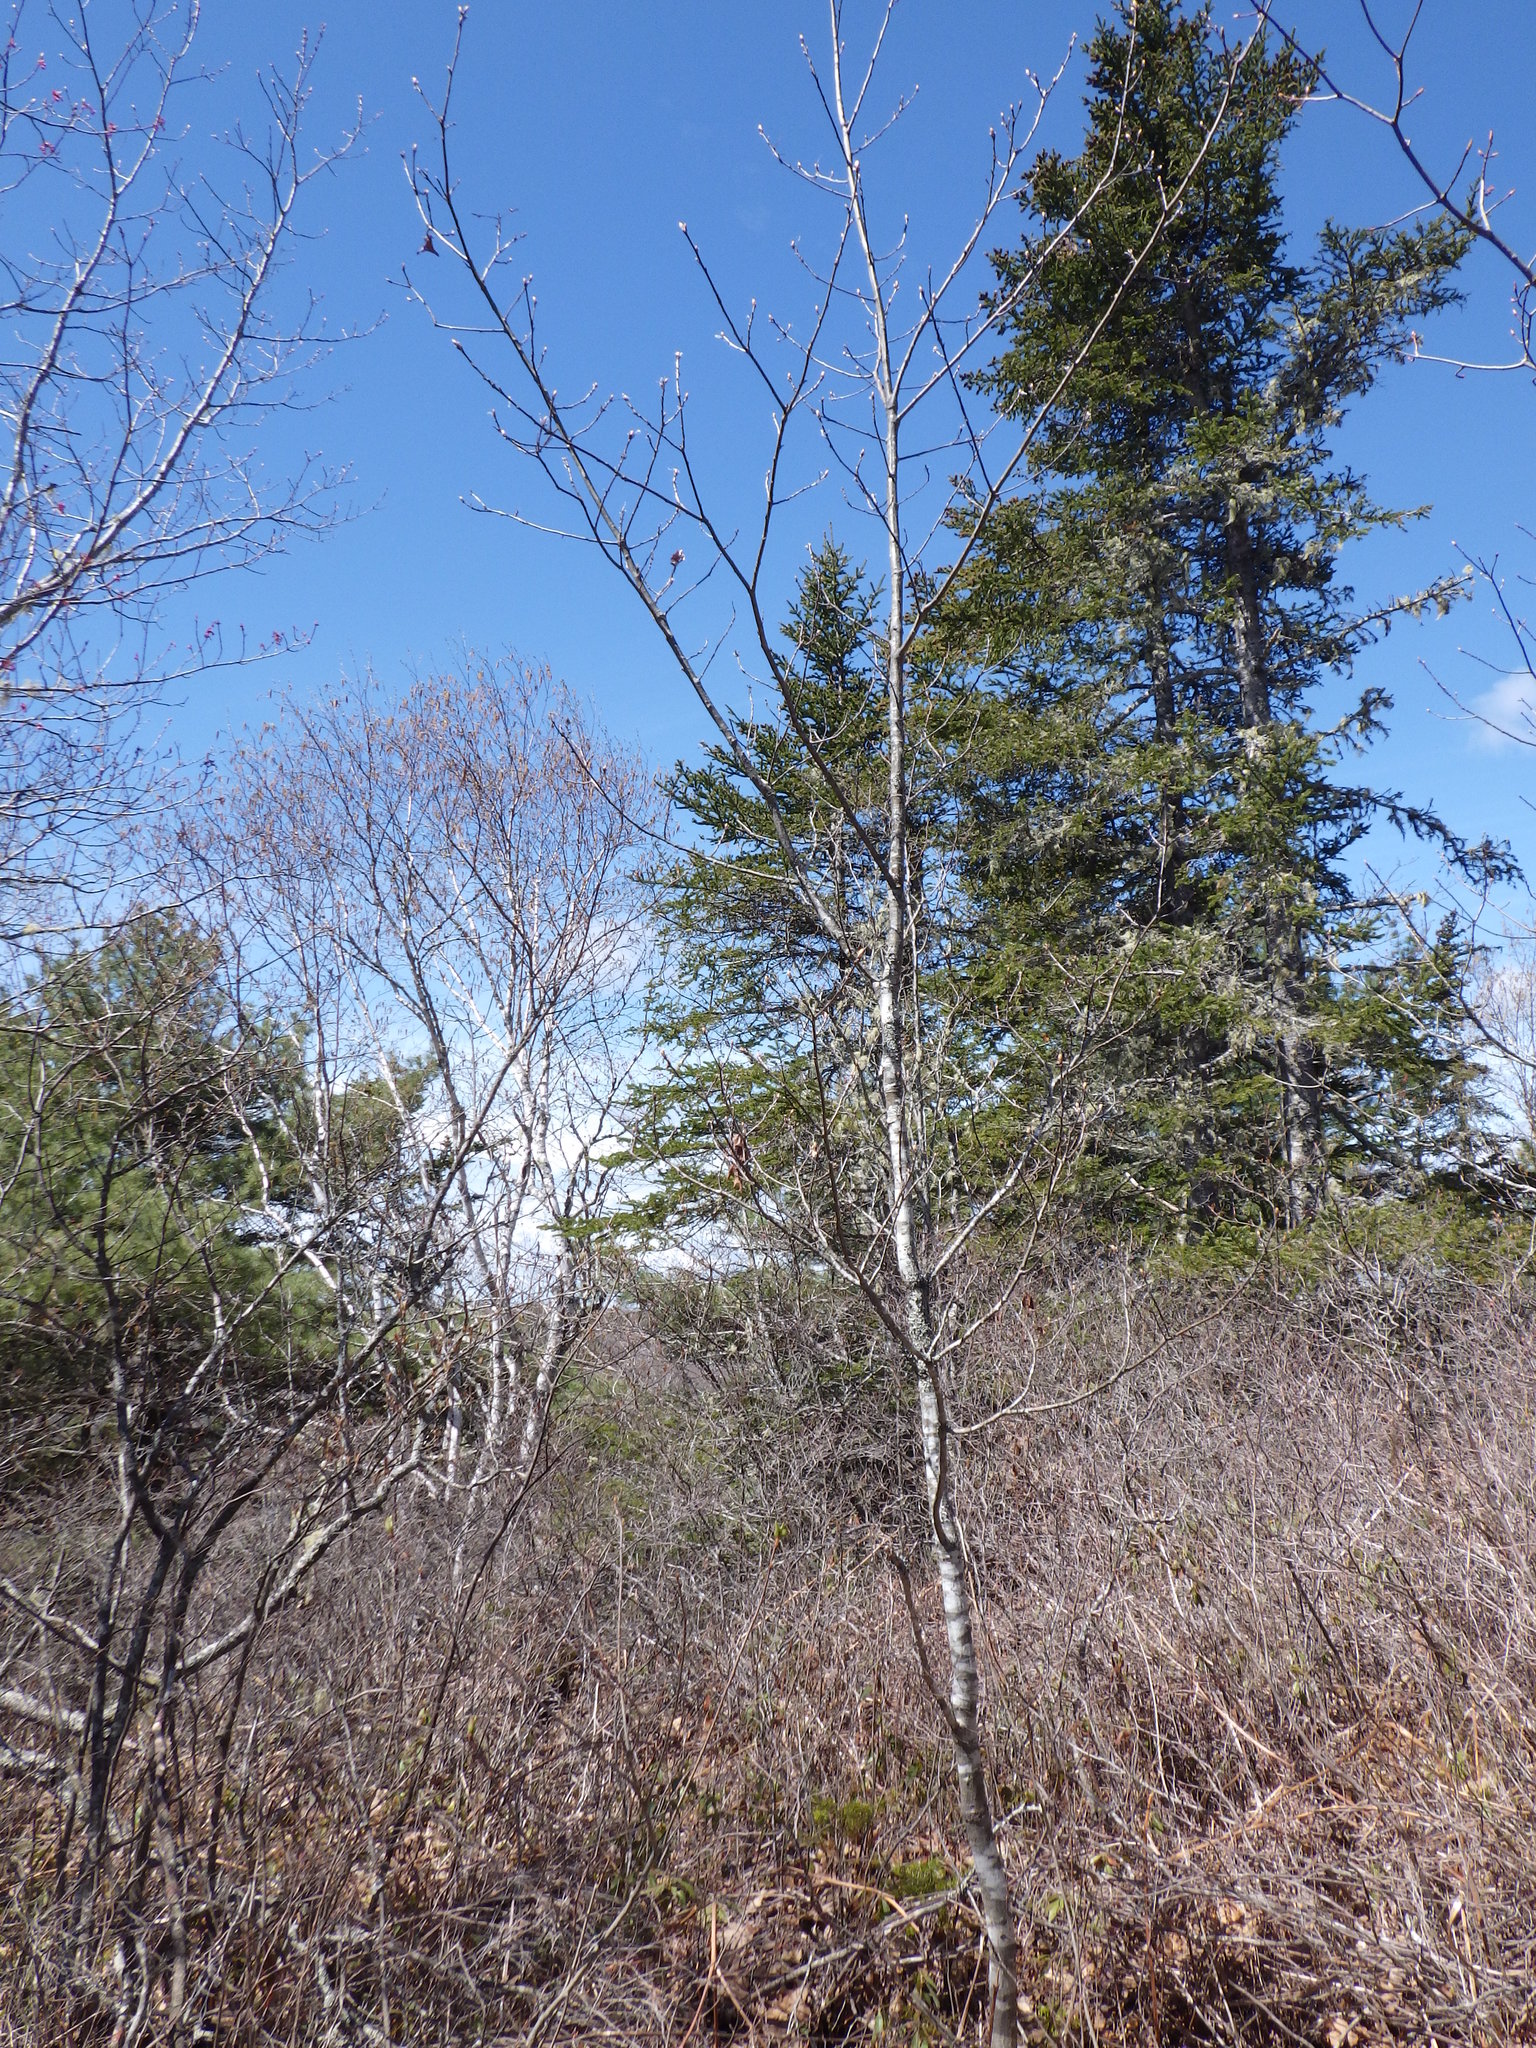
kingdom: Plantae
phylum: Tracheophyta
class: Magnoliopsida
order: Fagales
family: Fagaceae
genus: Quercus
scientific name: Quercus rubra
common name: Red oak
